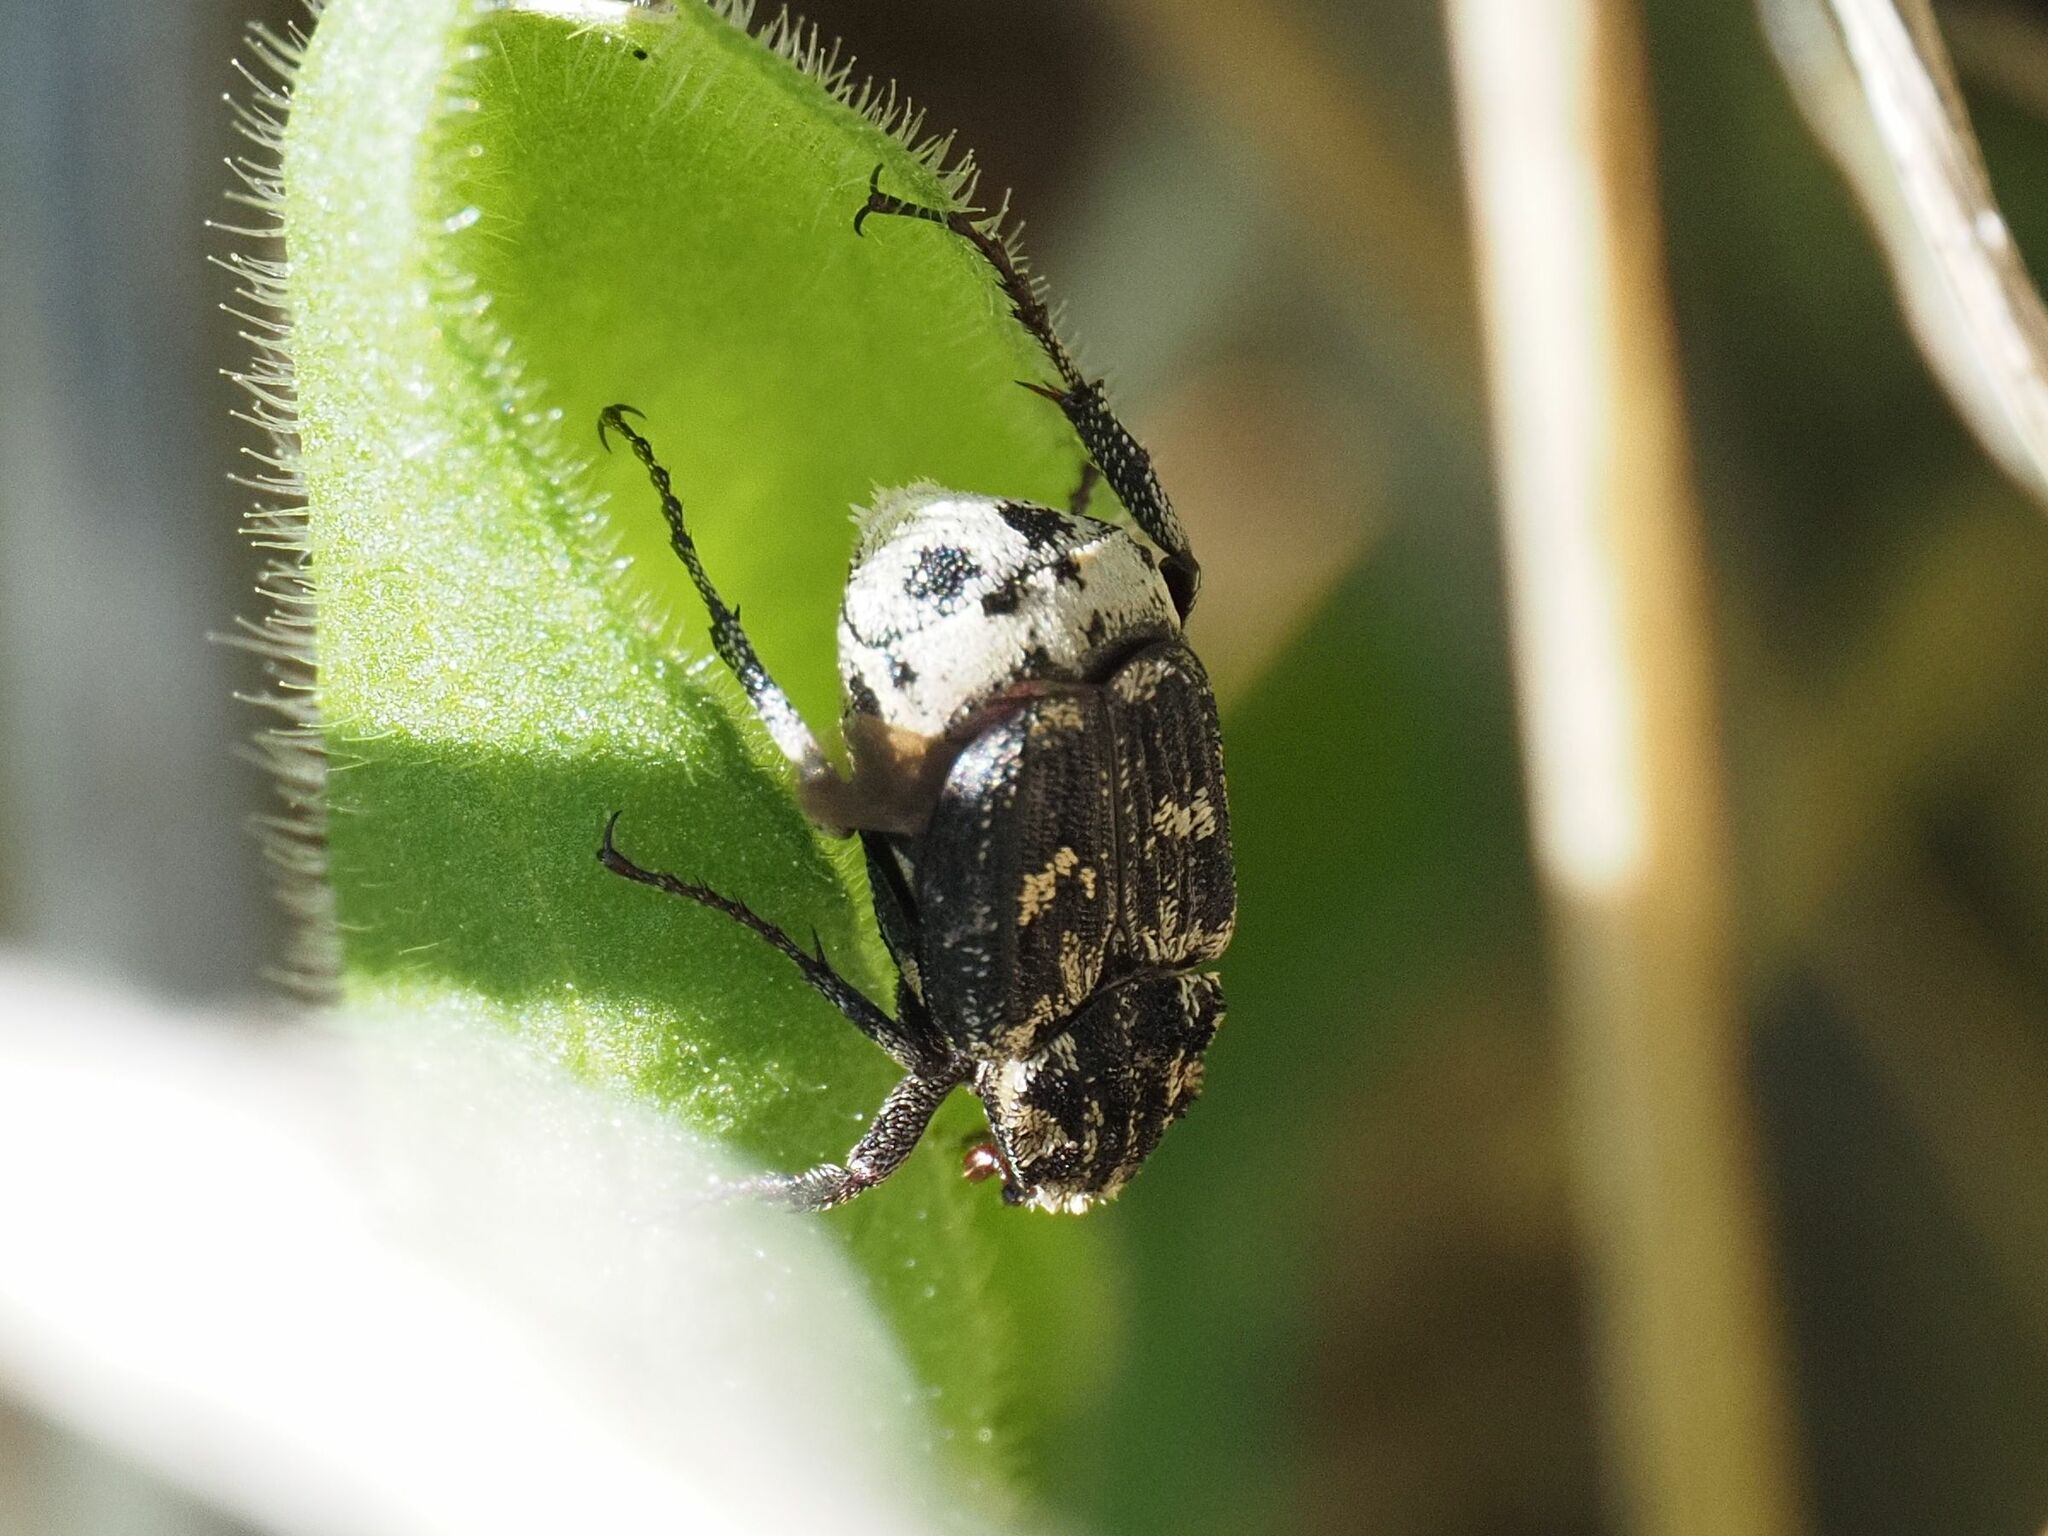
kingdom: Animalia
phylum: Arthropoda
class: Insecta
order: Coleoptera
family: Scarabaeidae
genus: Valgus
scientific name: Valgus hemipterus
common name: Bug flower chafer
